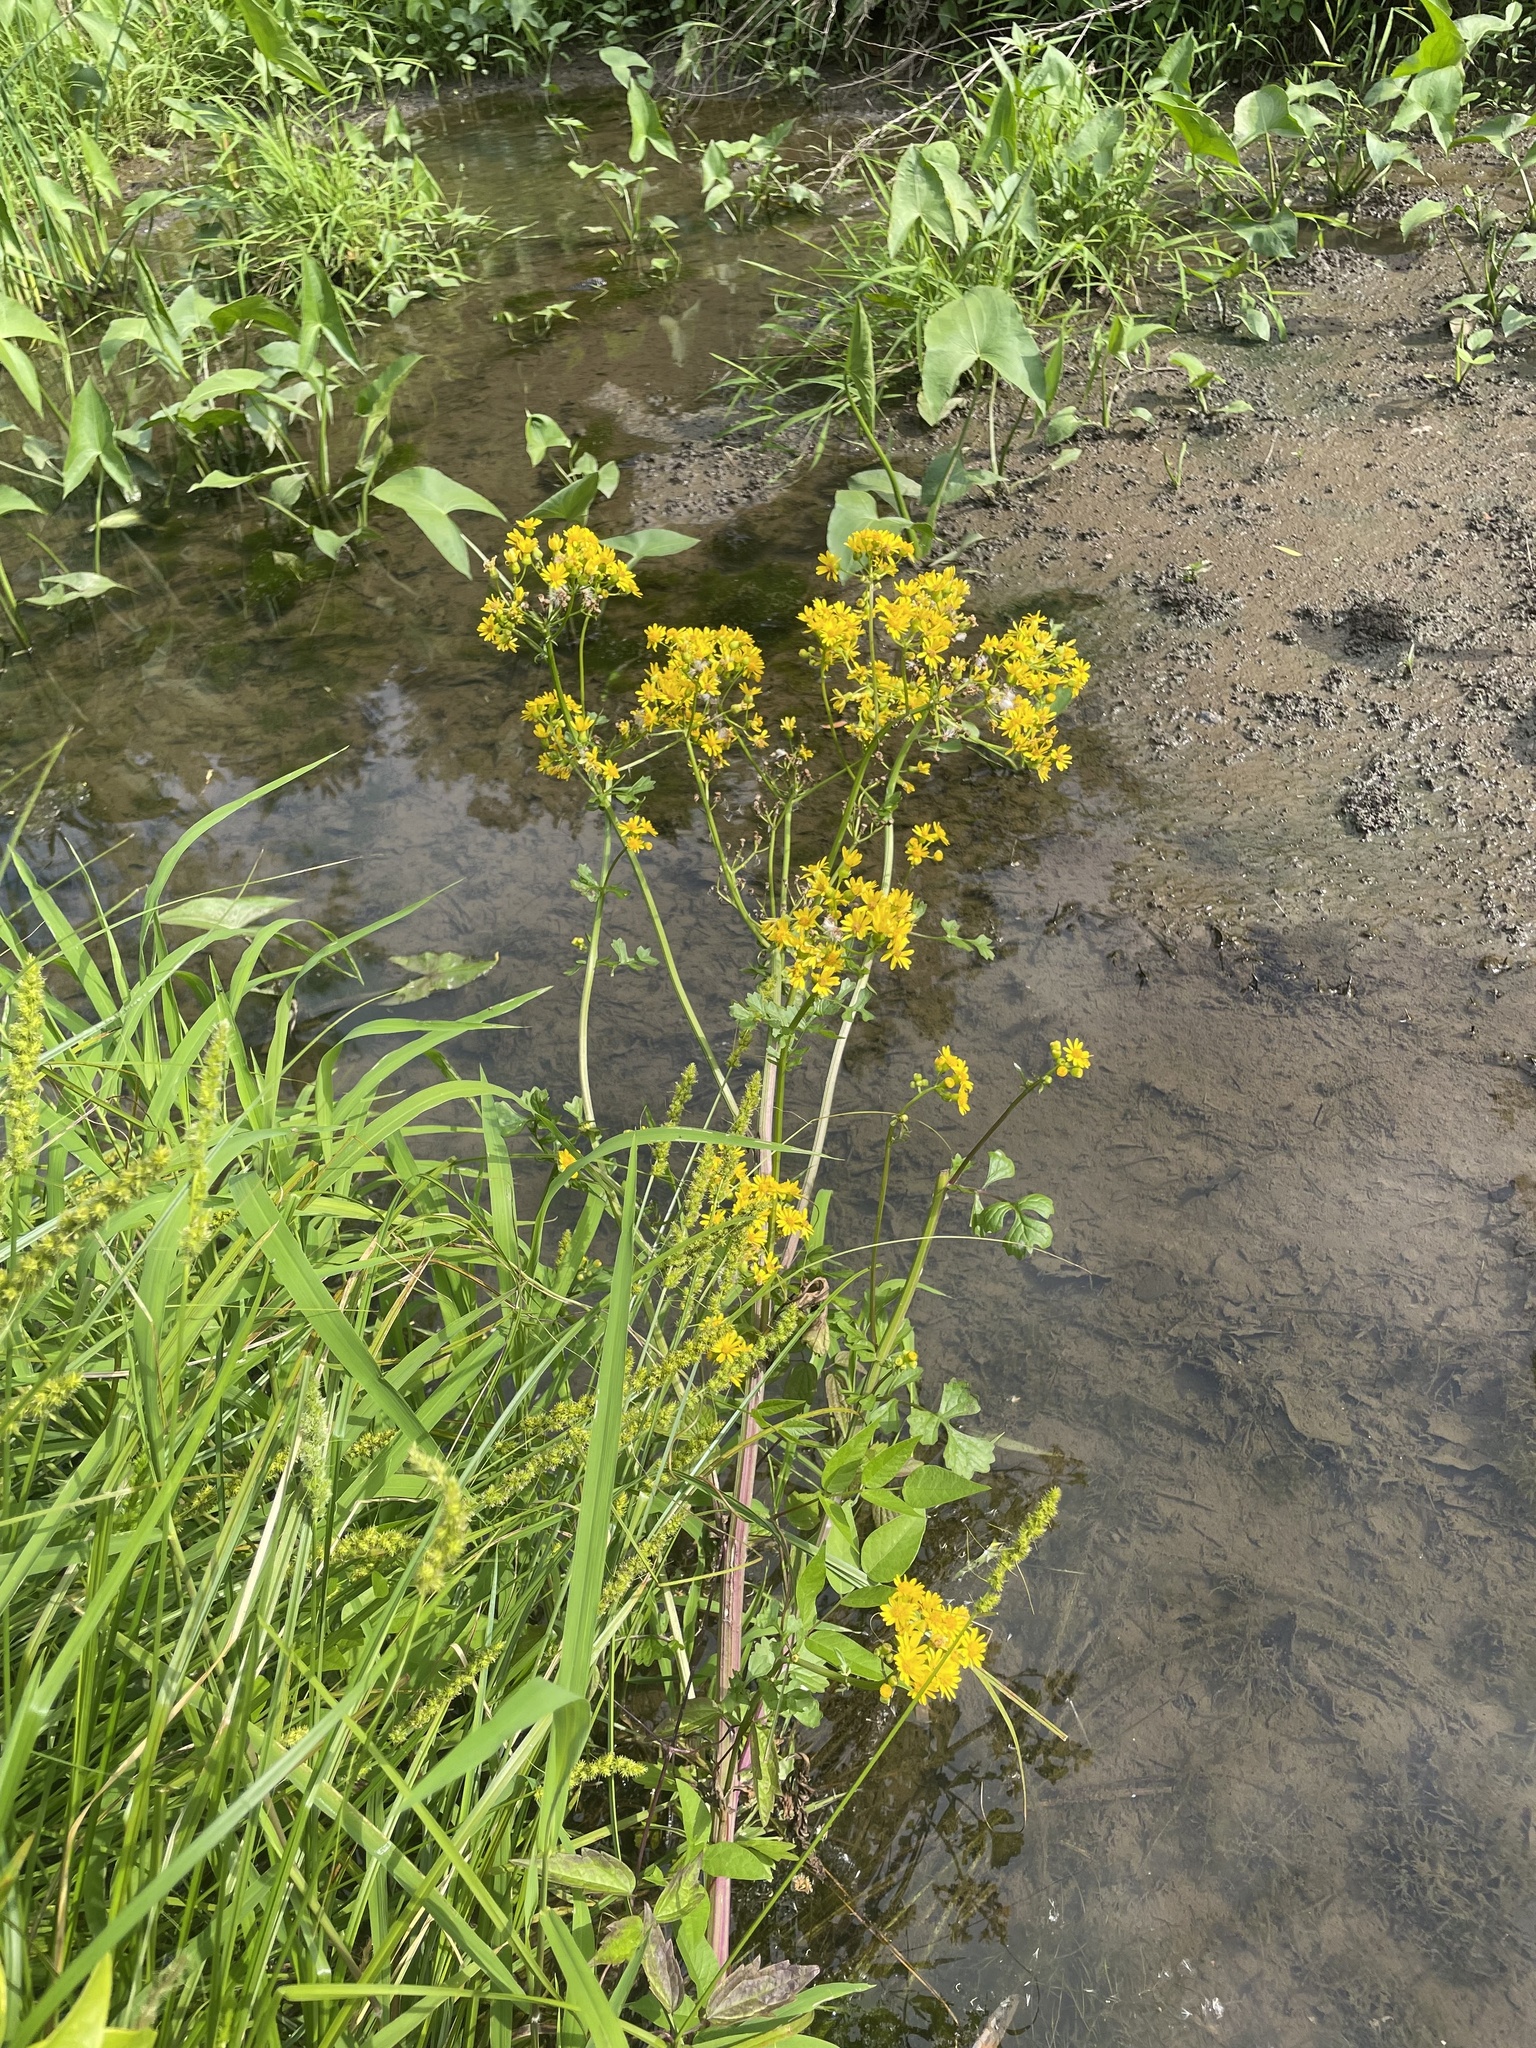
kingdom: Plantae
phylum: Tracheophyta
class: Magnoliopsida
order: Asterales
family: Asteraceae
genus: Packera
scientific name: Packera glabella
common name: Butterweed
